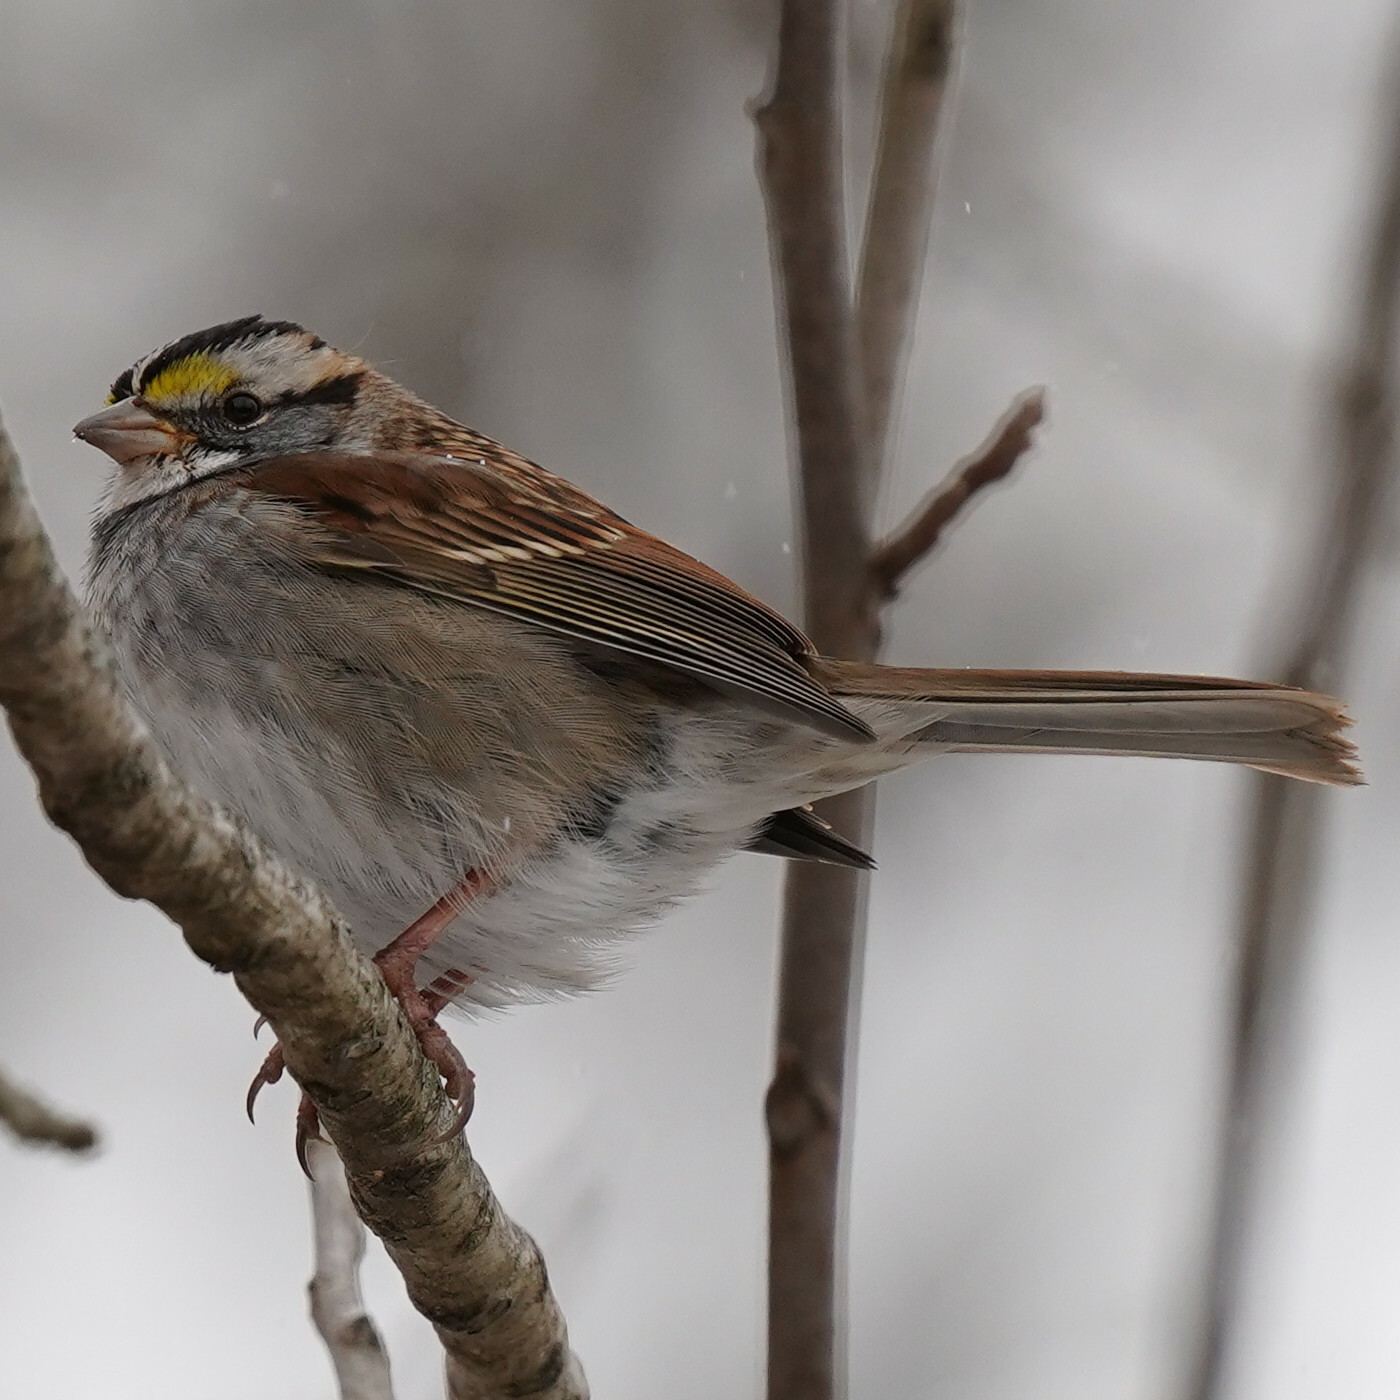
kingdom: Animalia
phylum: Chordata
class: Aves
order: Passeriformes
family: Passerellidae
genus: Zonotrichia
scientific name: Zonotrichia albicollis
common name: White-throated sparrow
